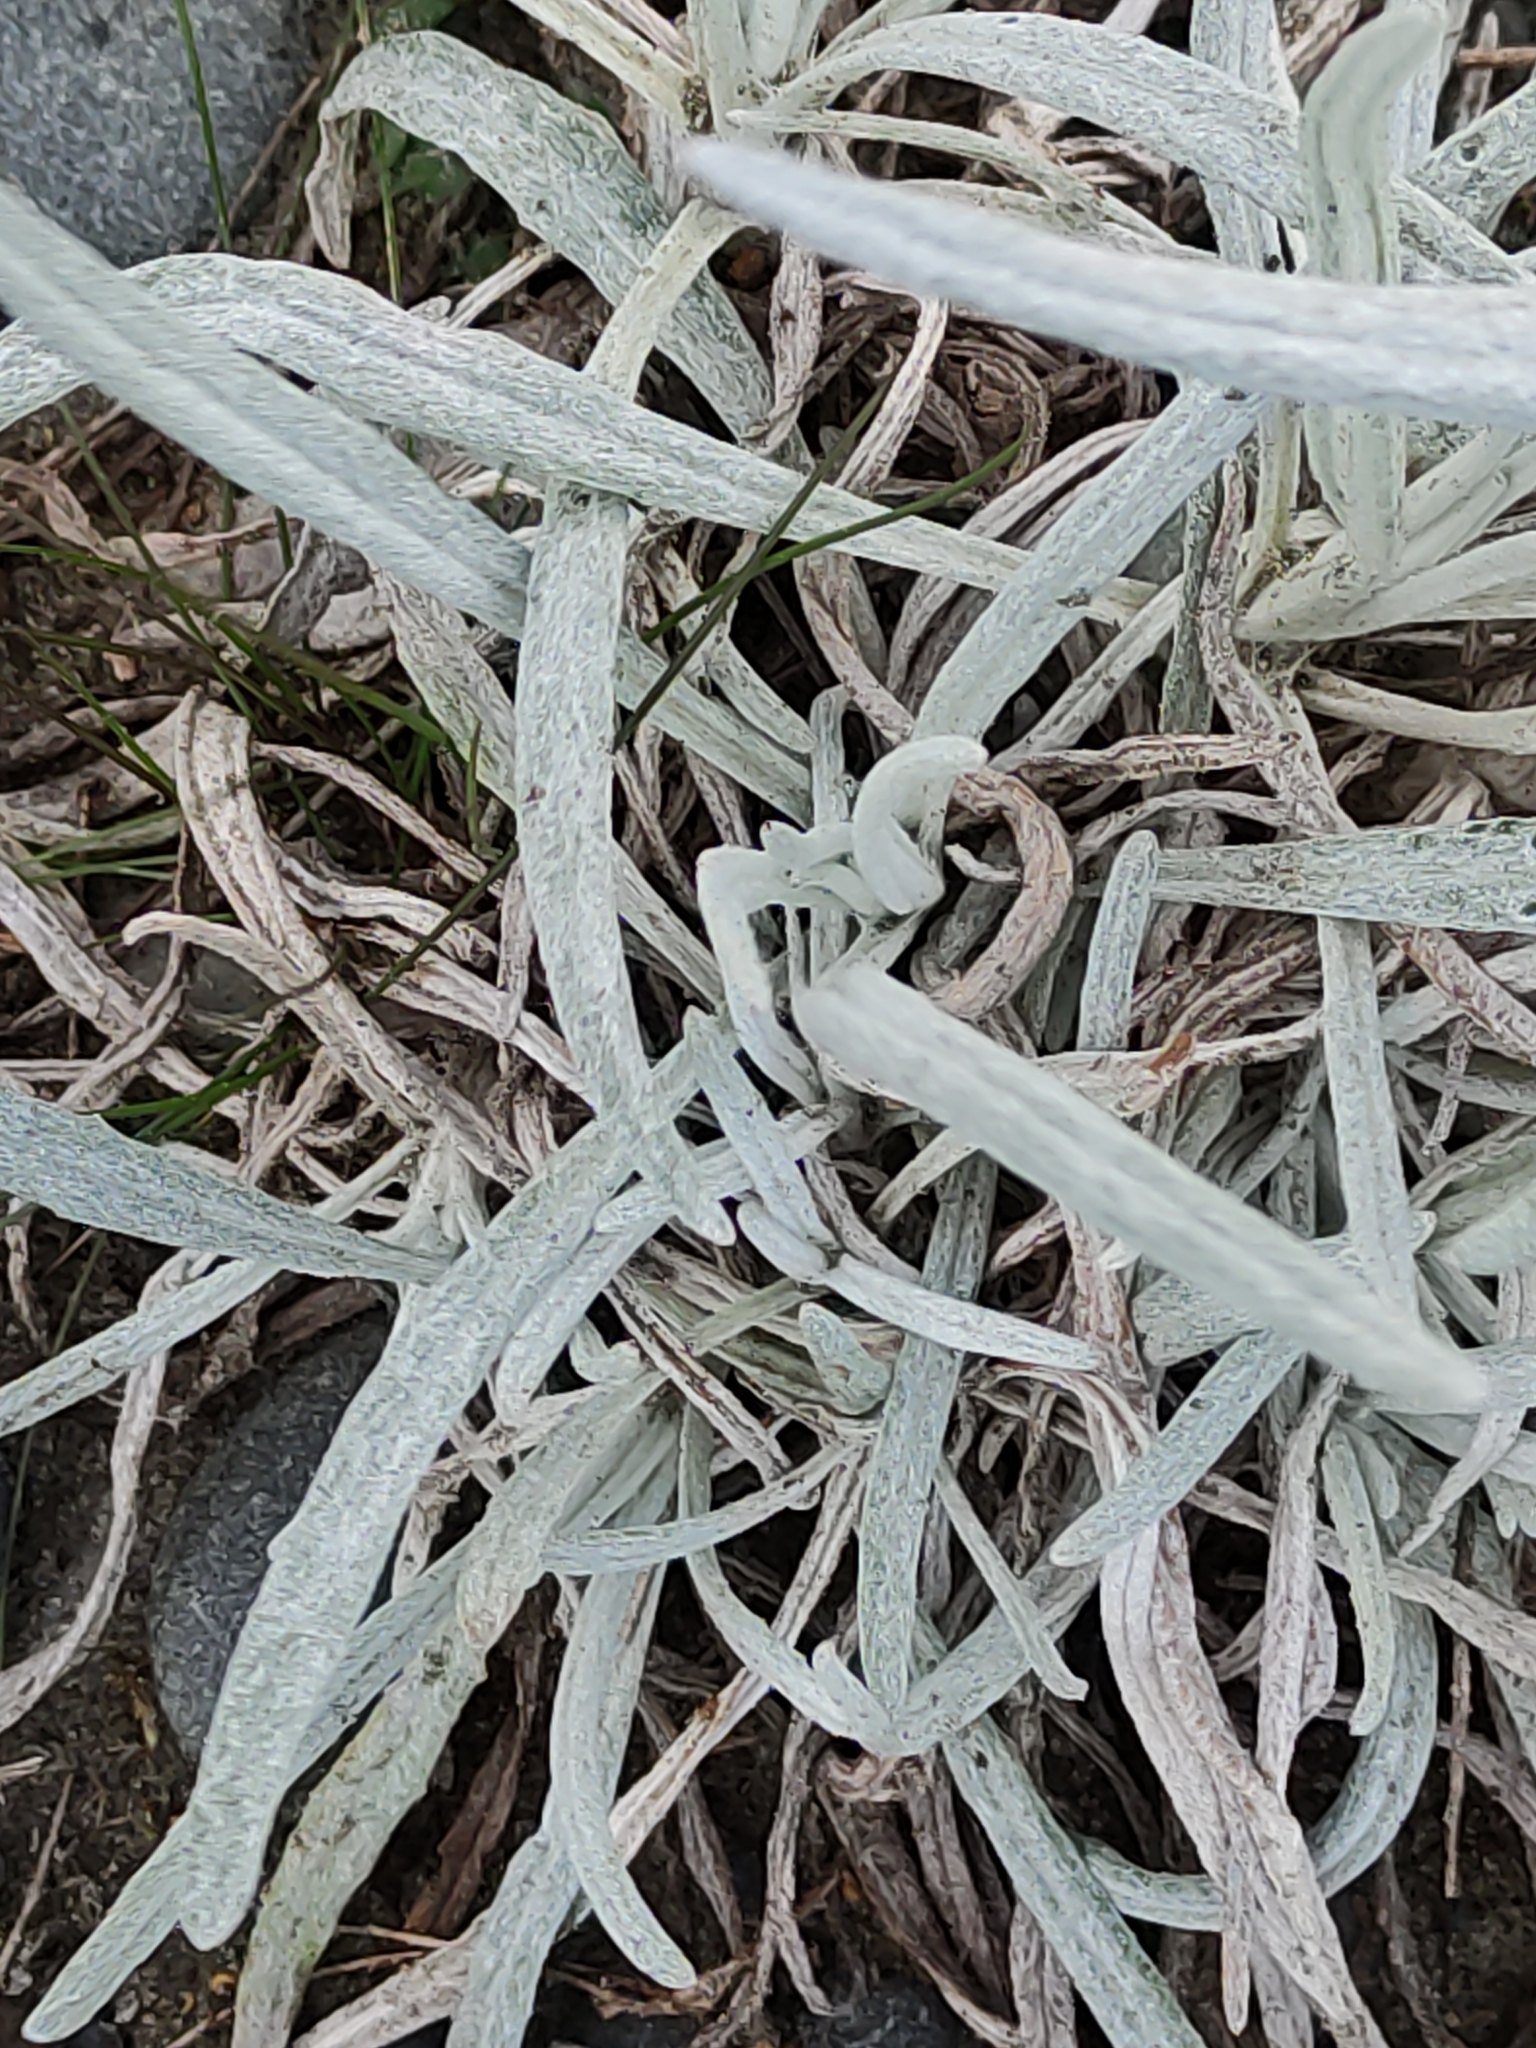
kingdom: Plantae
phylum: Tracheophyta
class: Magnoliopsida
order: Asterales
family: Asteraceae
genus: Senecio
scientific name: Senecio quadridentatus
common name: Cotton fireweed
